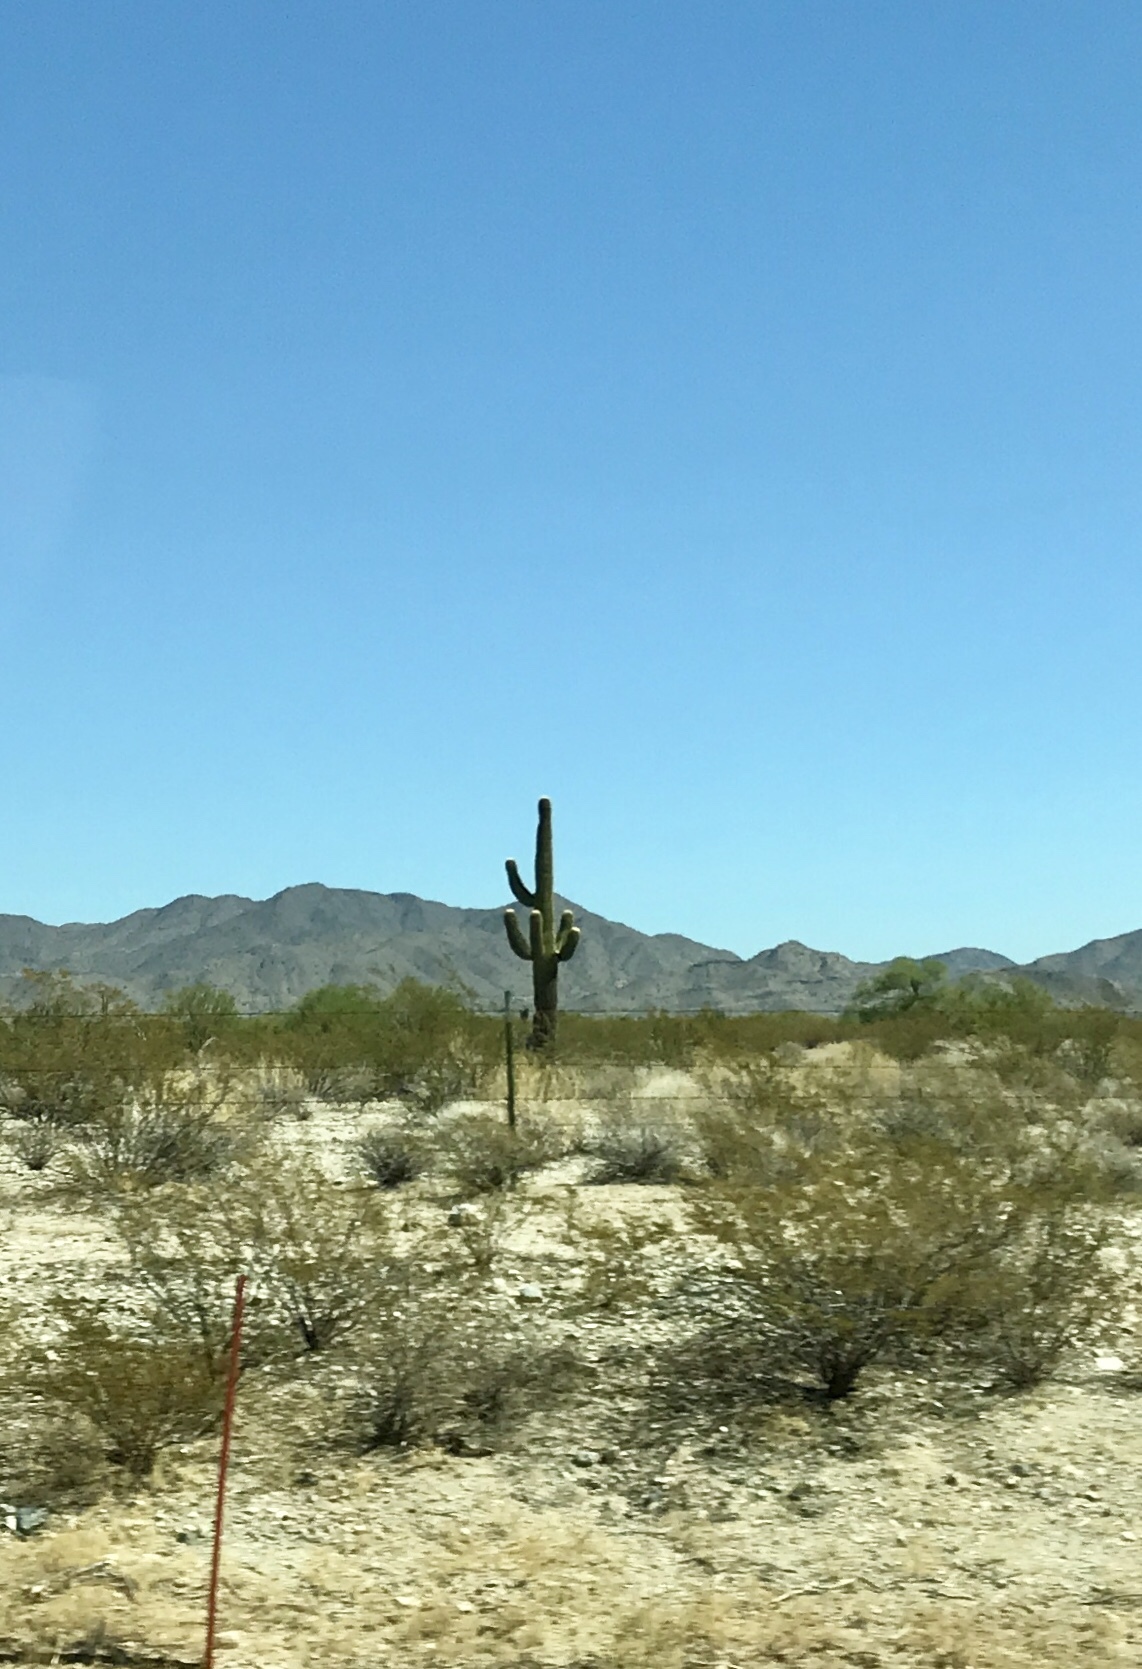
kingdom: Plantae
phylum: Tracheophyta
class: Magnoliopsida
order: Caryophyllales
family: Cactaceae
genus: Carnegiea
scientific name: Carnegiea gigantea
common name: Saguaro
